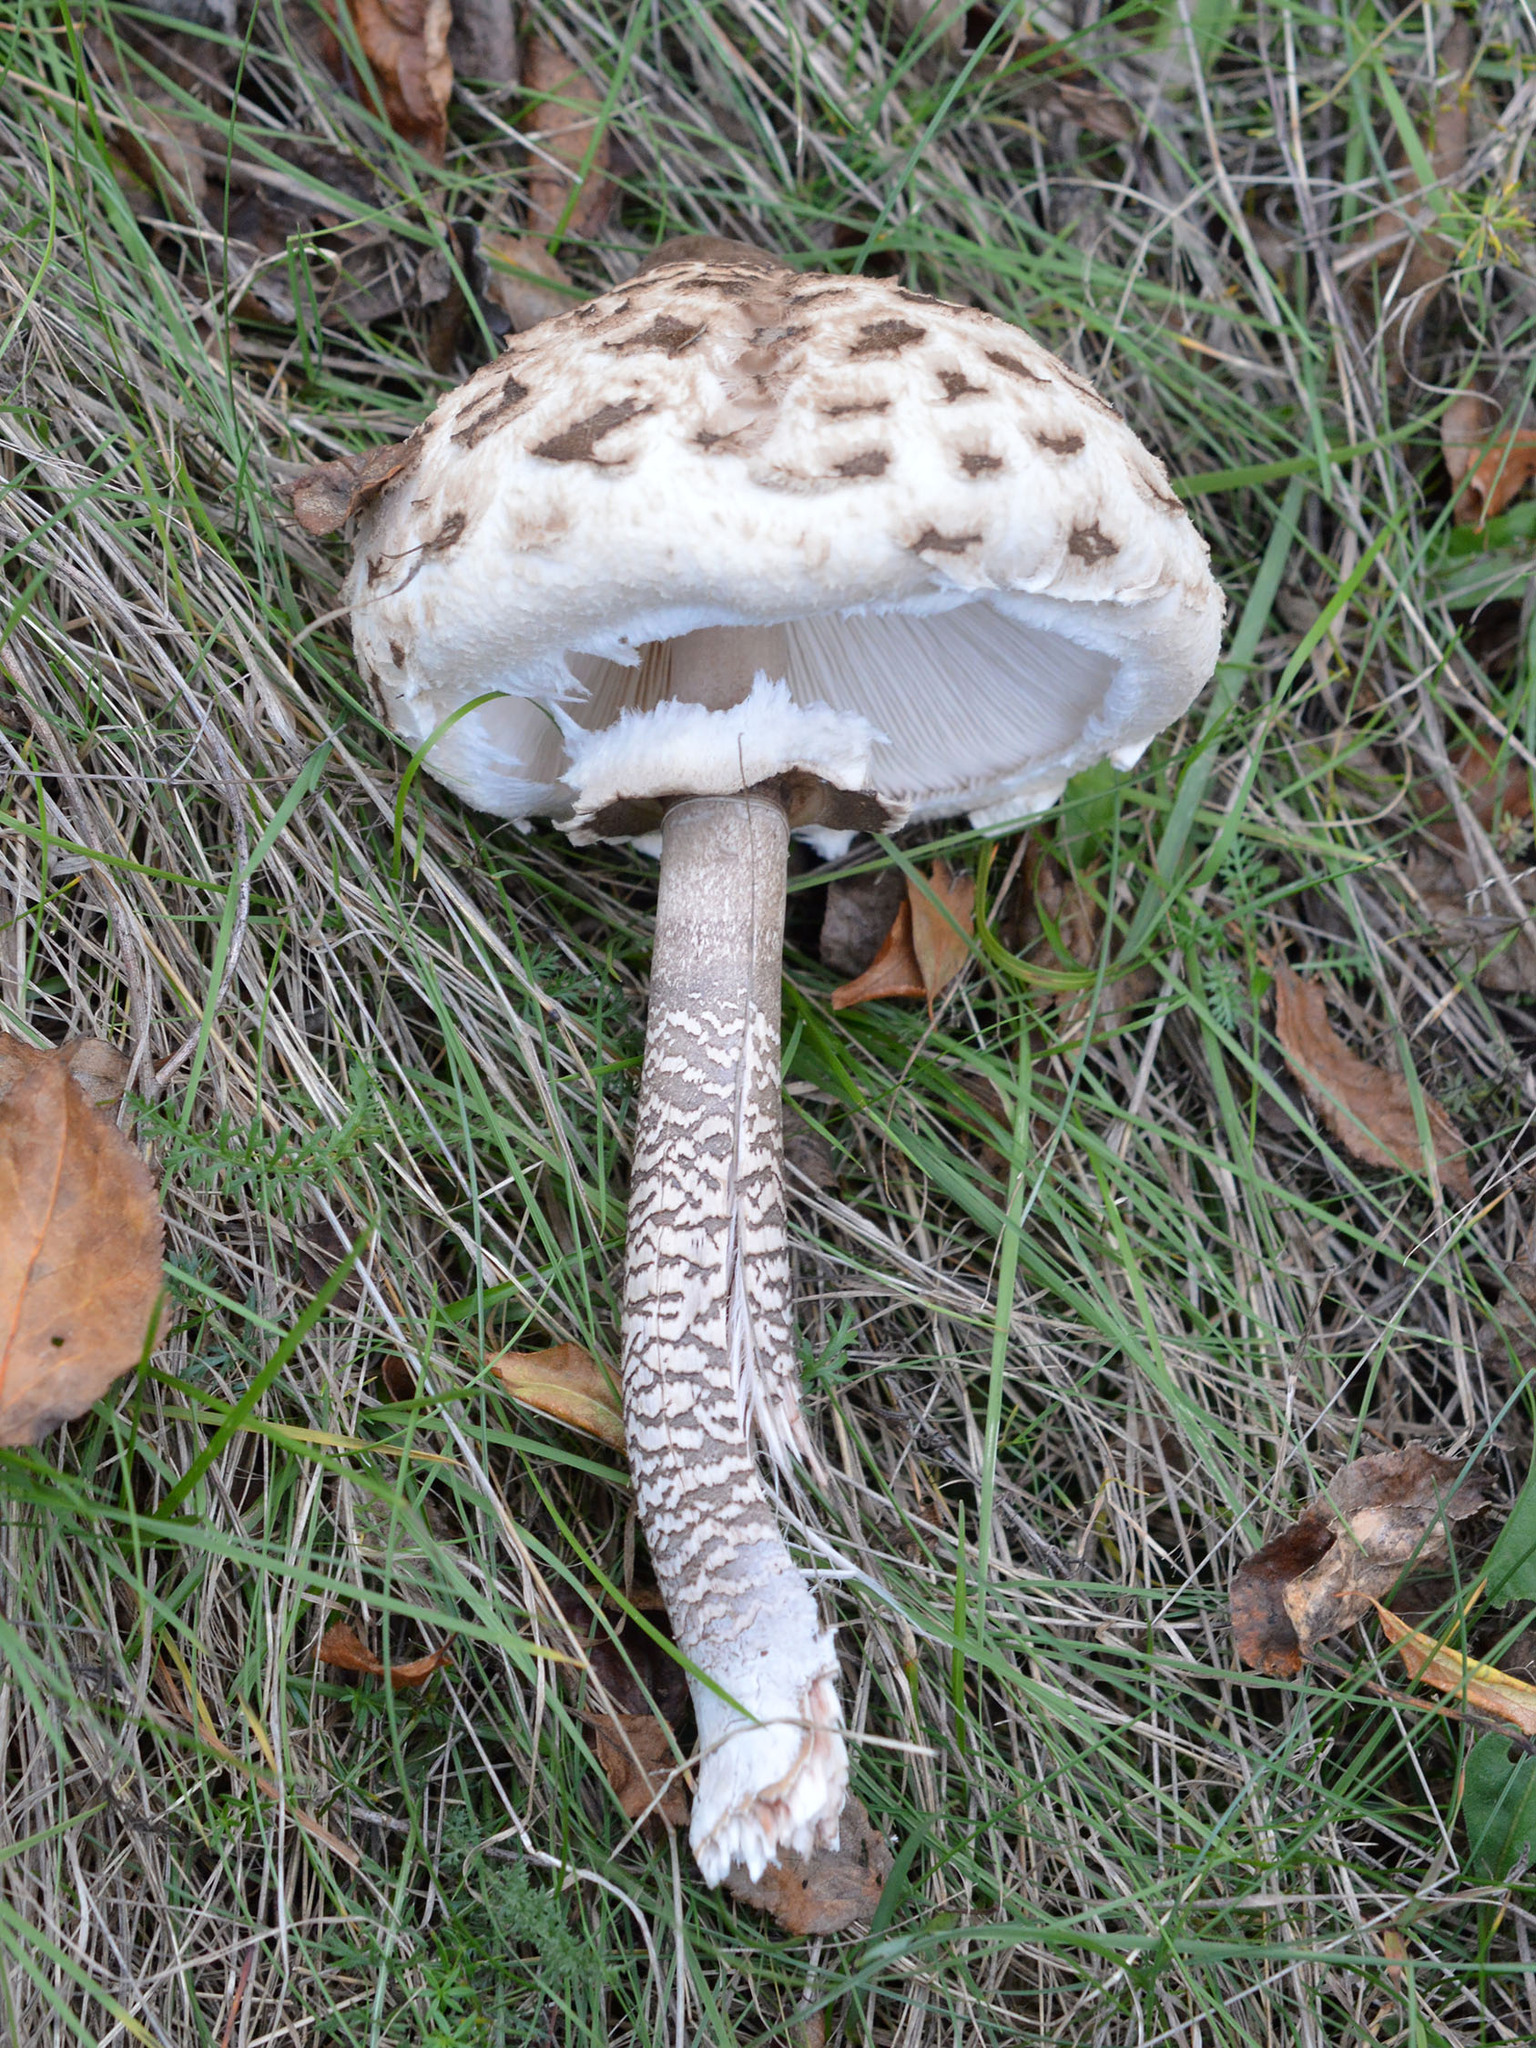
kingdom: Fungi
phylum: Basidiomycota
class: Agaricomycetes
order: Agaricales
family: Agaricaceae
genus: Macrolepiota
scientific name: Macrolepiota procera
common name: Parasol
